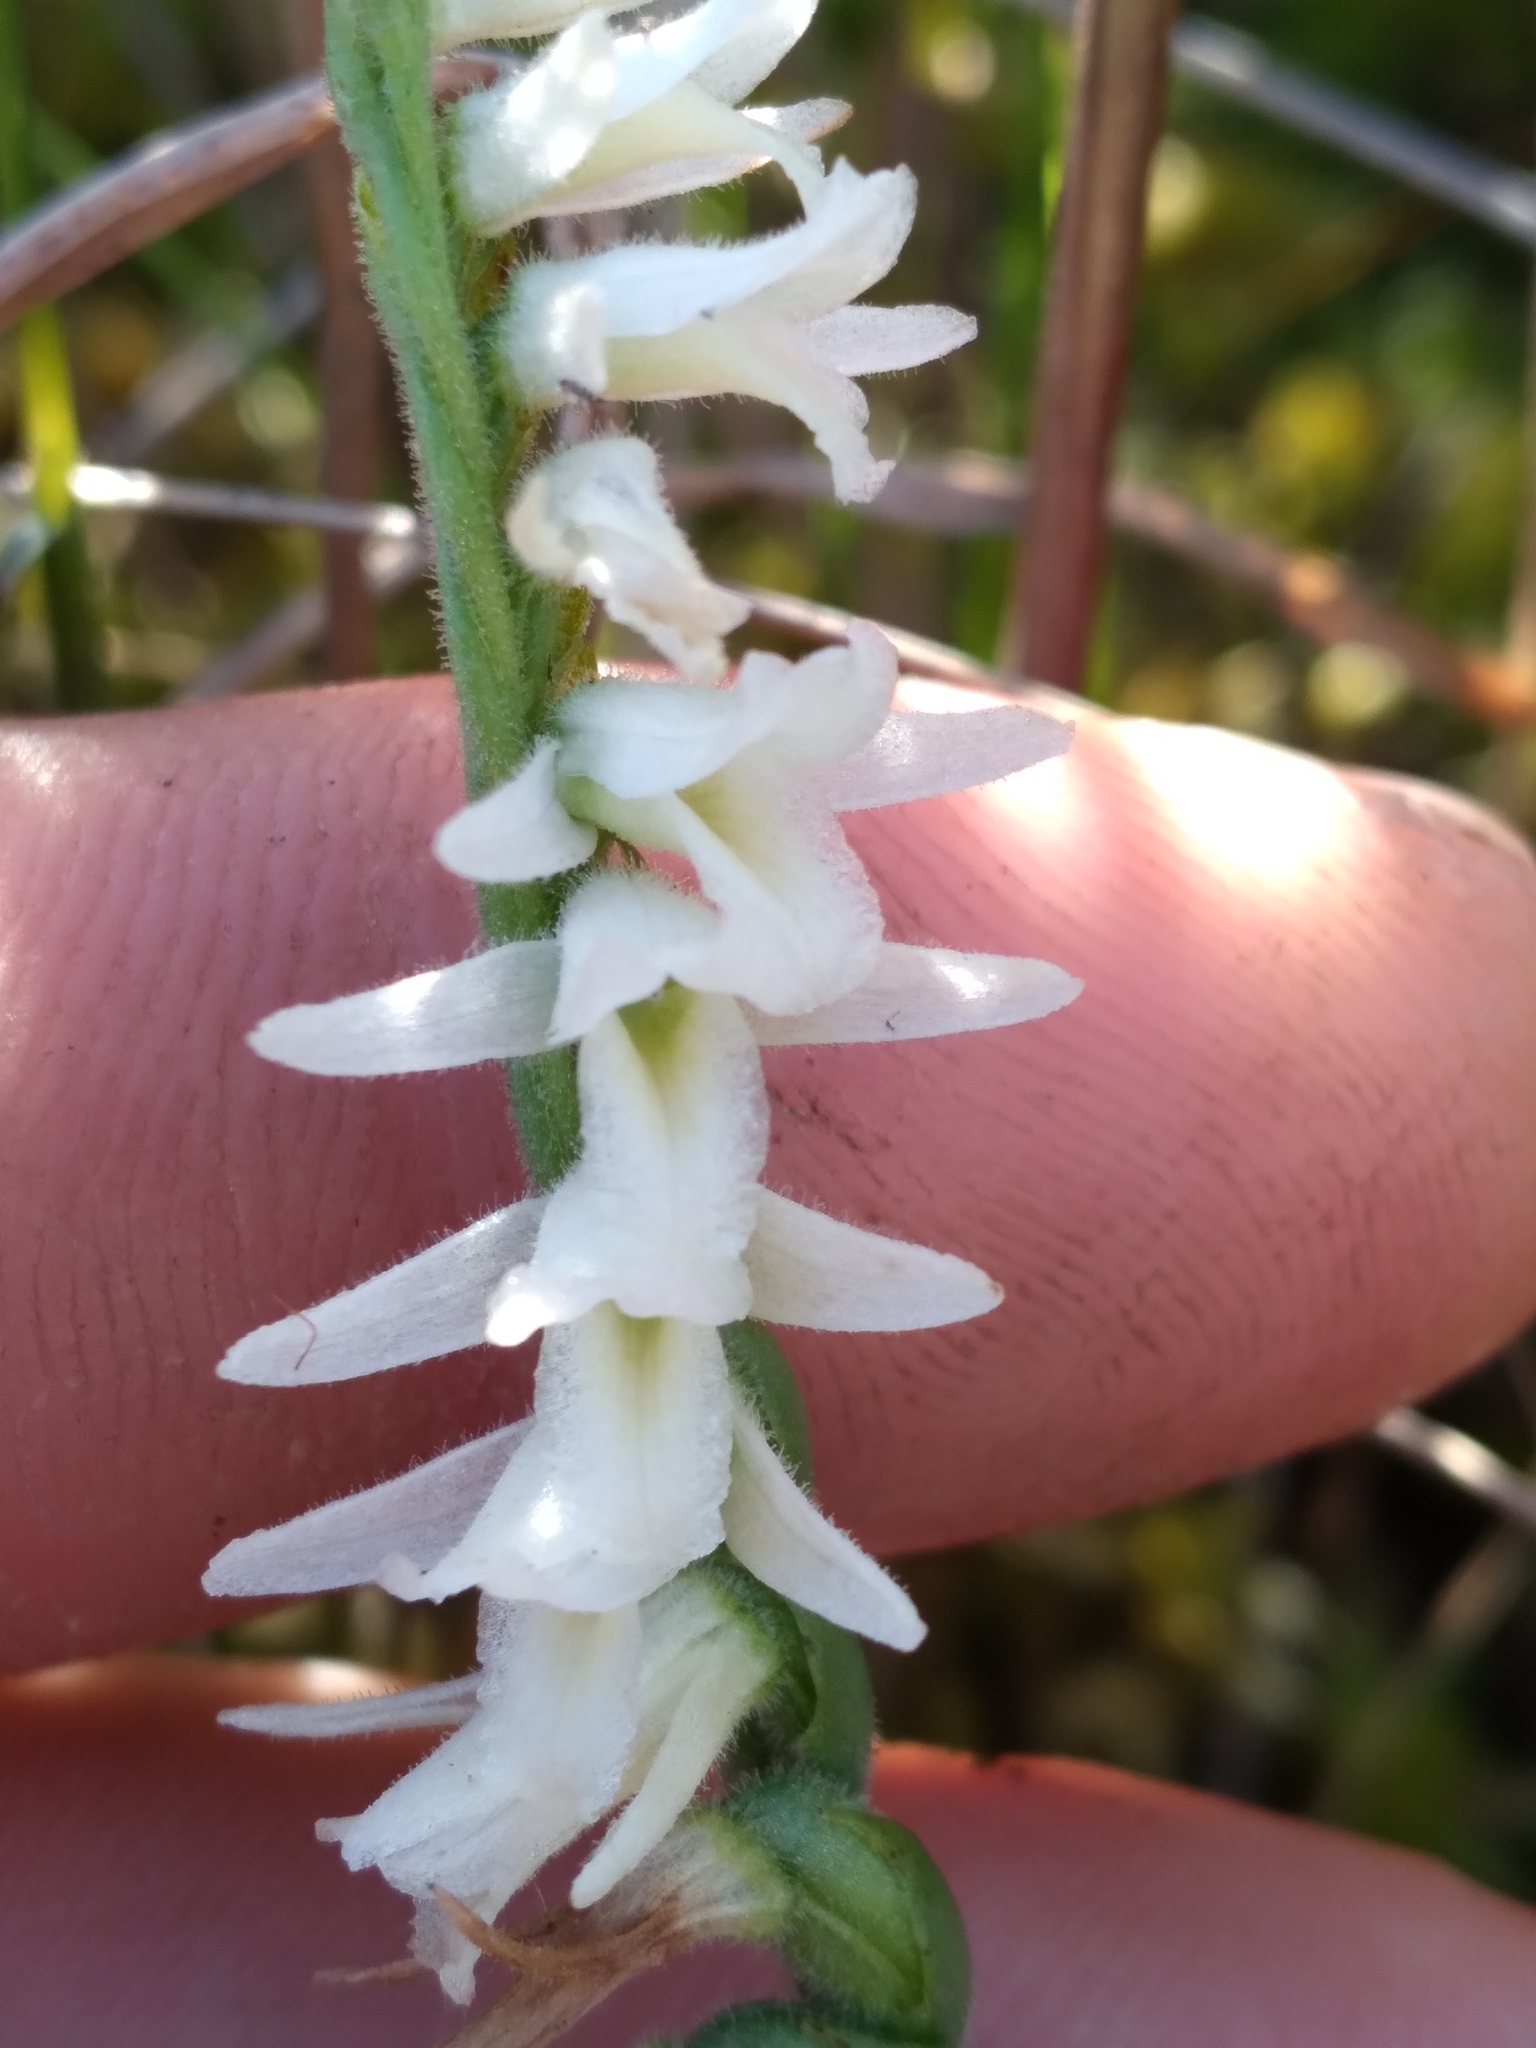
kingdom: Plantae
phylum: Tracheophyta
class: Liliopsida
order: Asparagales
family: Orchidaceae
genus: Spiranthes
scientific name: Spiranthes longilabris
